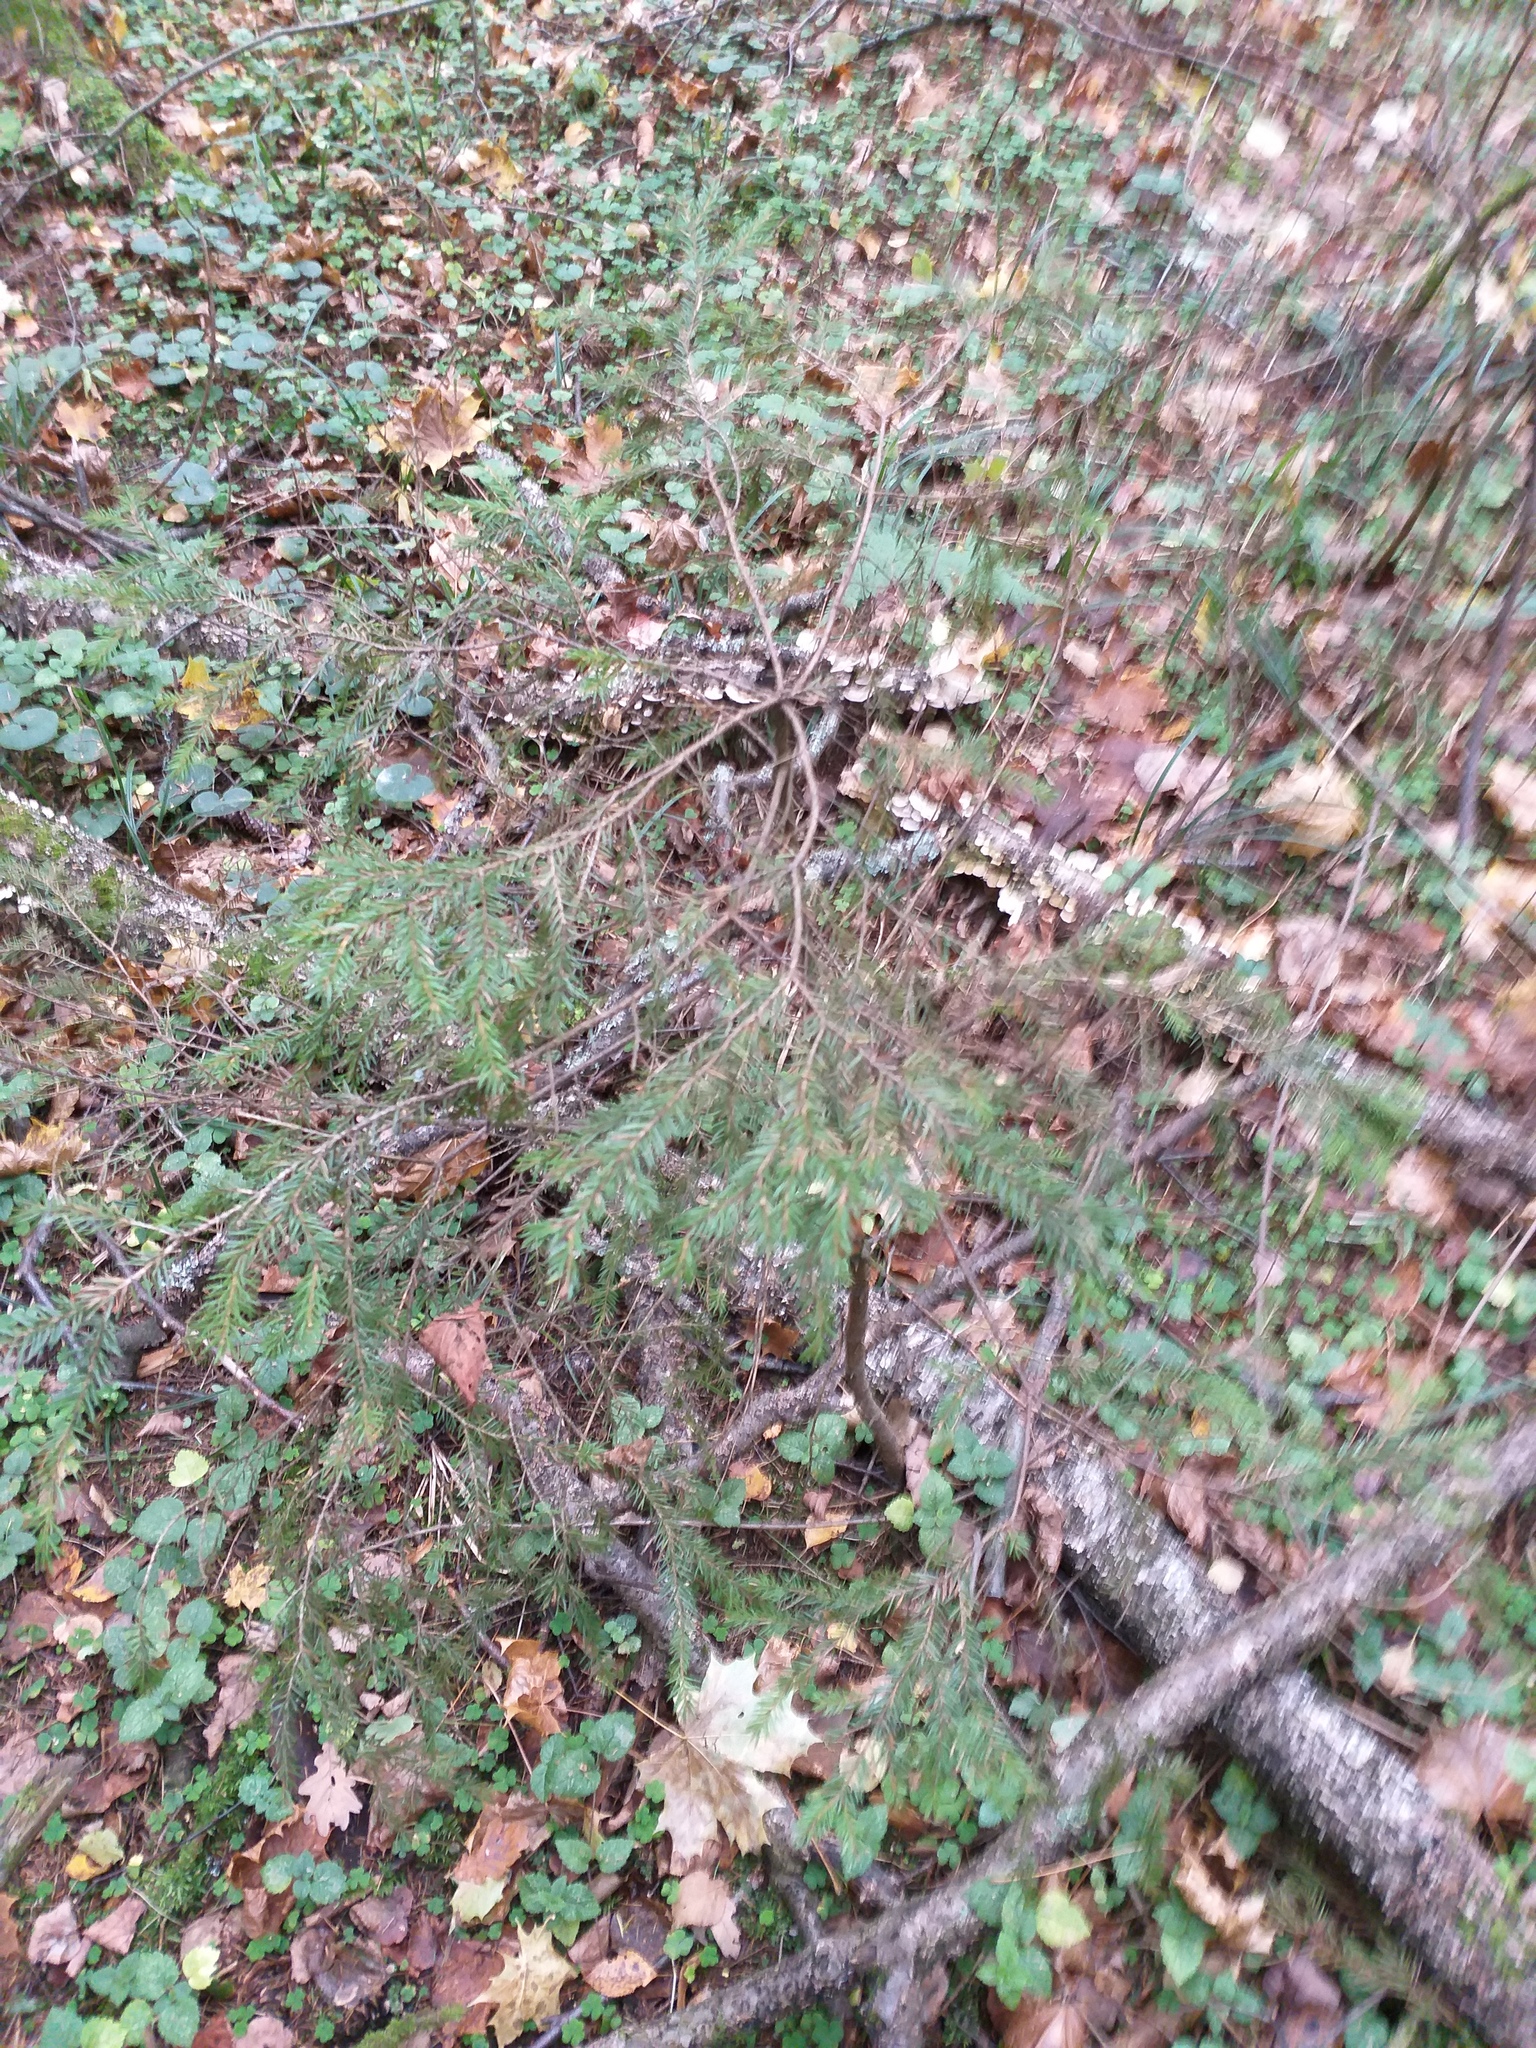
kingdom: Plantae
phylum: Tracheophyta
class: Pinopsida
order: Pinales
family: Pinaceae
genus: Picea
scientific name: Picea abies
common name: Norway spruce
